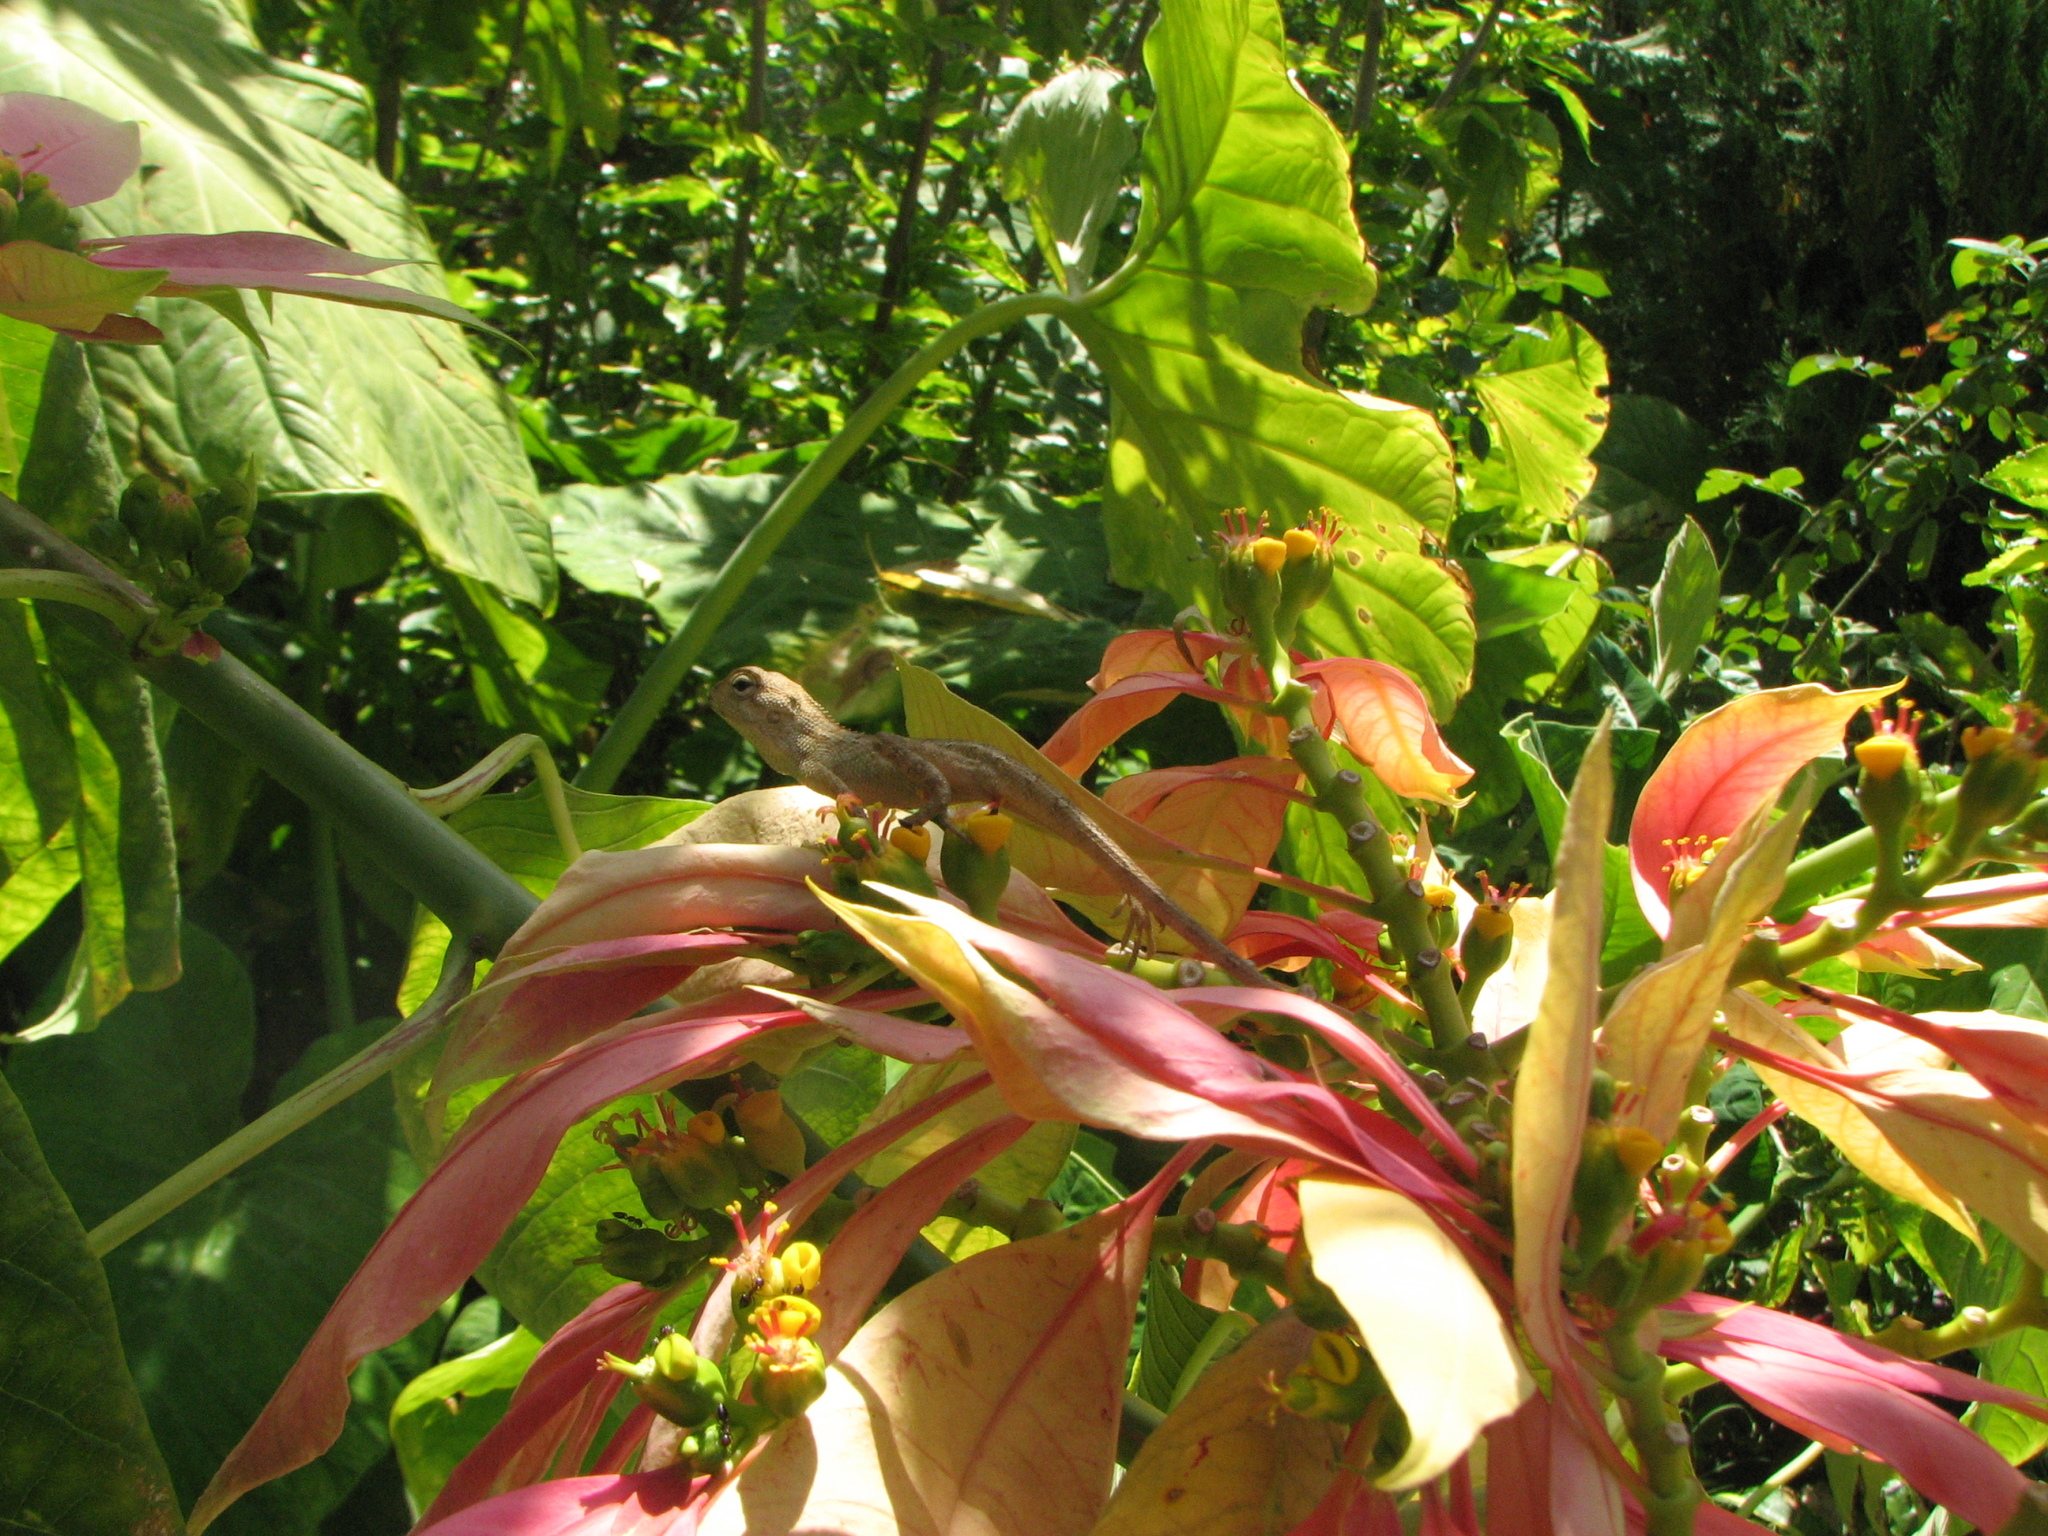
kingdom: Animalia
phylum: Chordata
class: Squamata
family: Agamidae
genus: Calotes
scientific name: Calotes versicolor
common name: Oriental garden lizard
